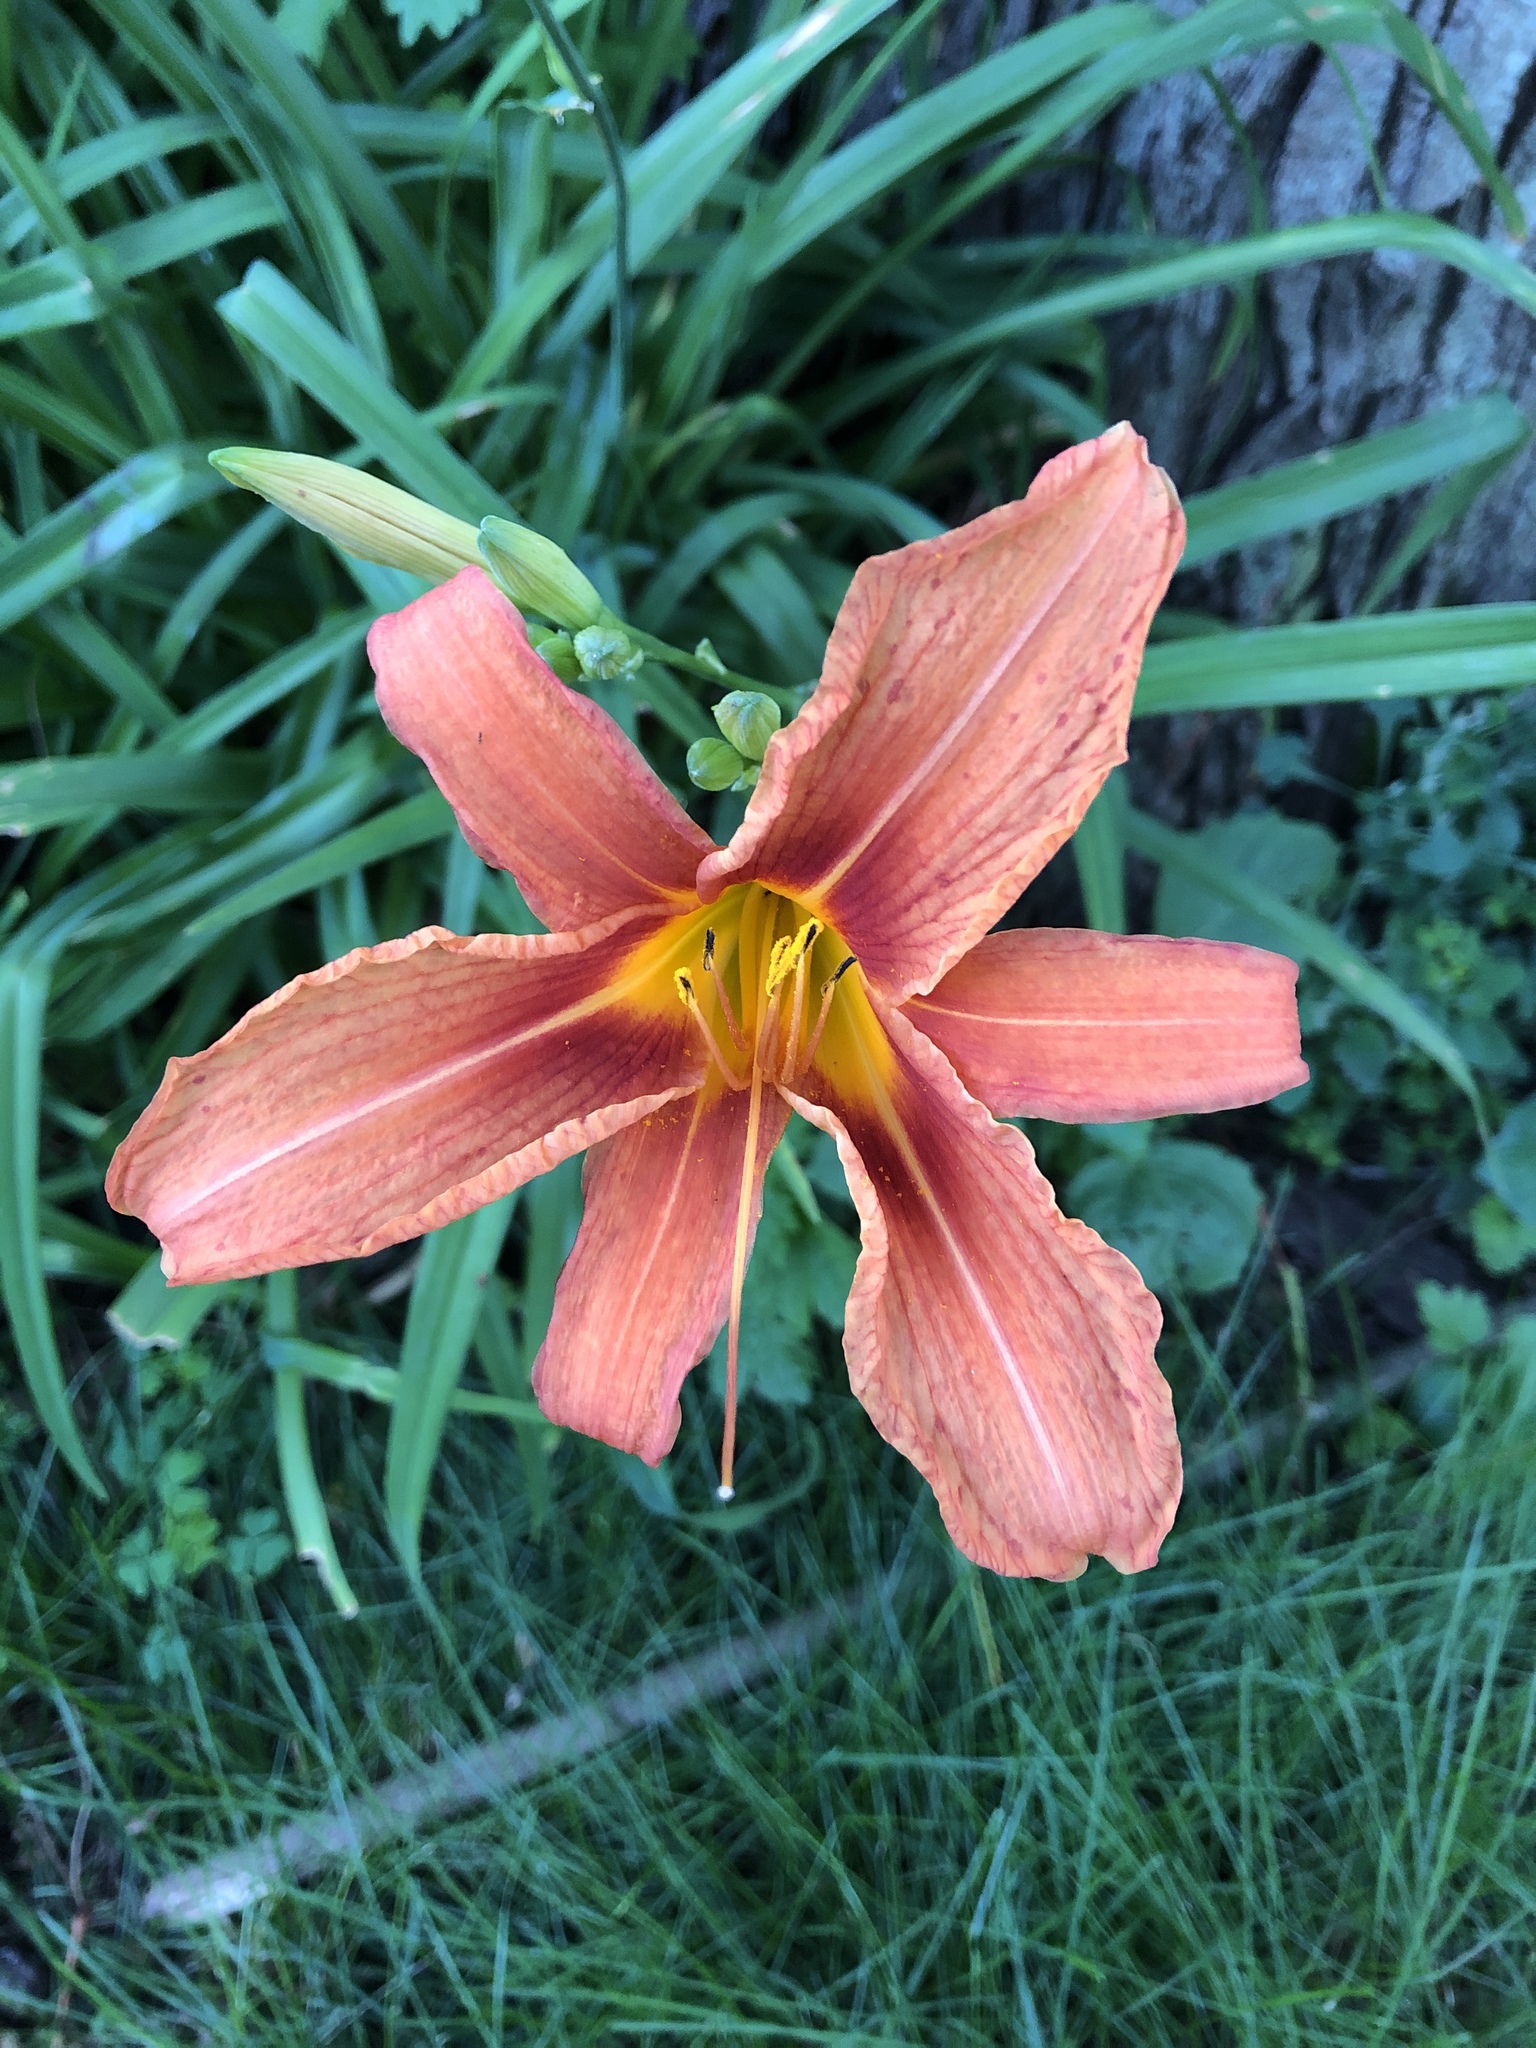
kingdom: Plantae
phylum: Tracheophyta
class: Liliopsida
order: Asparagales
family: Asphodelaceae
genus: Hemerocallis
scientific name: Hemerocallis fulva
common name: Orange day-lily
